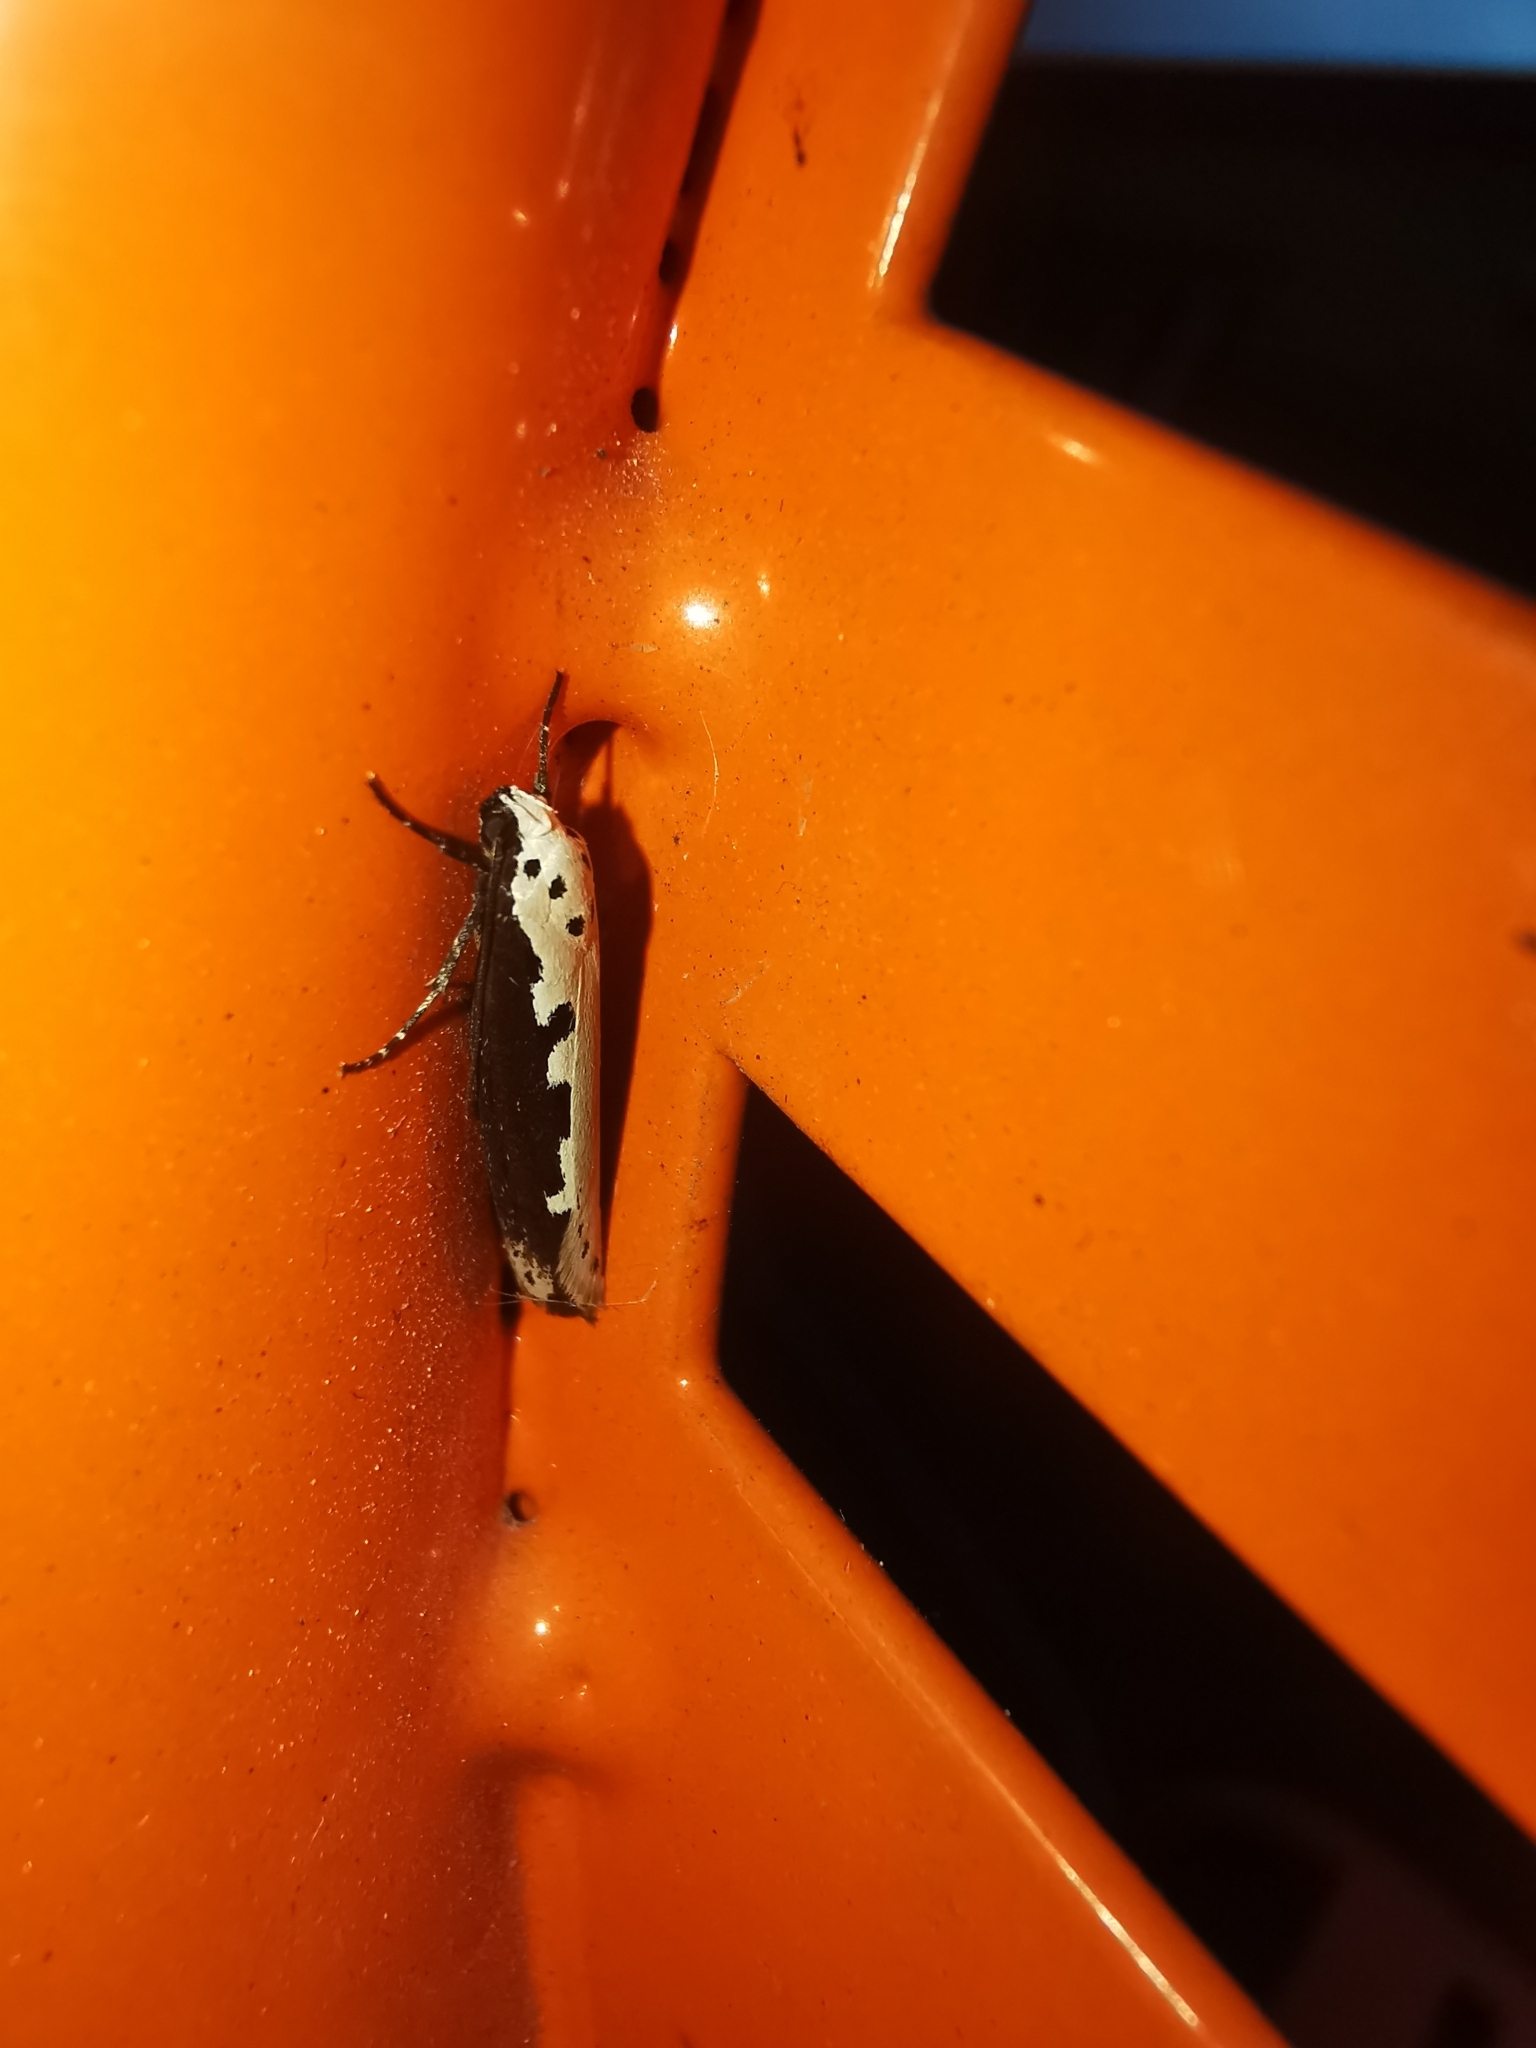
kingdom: Animalia
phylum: Arthropoda
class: Insecta
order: Lepidoptera
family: Ethmiidae
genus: Ethmia
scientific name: Ethmia bipunctella
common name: Bordered ermel
